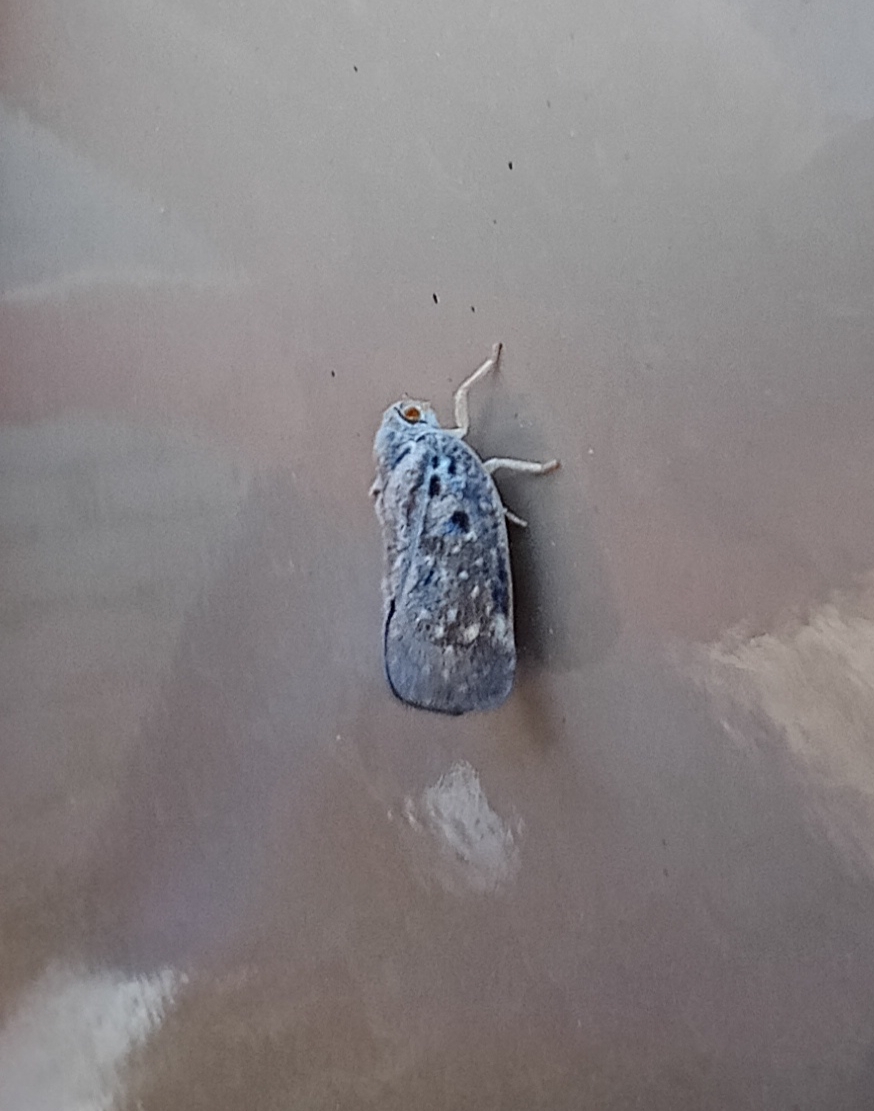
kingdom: Animalia
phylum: Arthropoda
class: Insecta
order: Hemiptera
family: Flatidae
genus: Metcalfa
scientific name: Metcalfa pruinosa
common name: Citrus flatid planthopper
